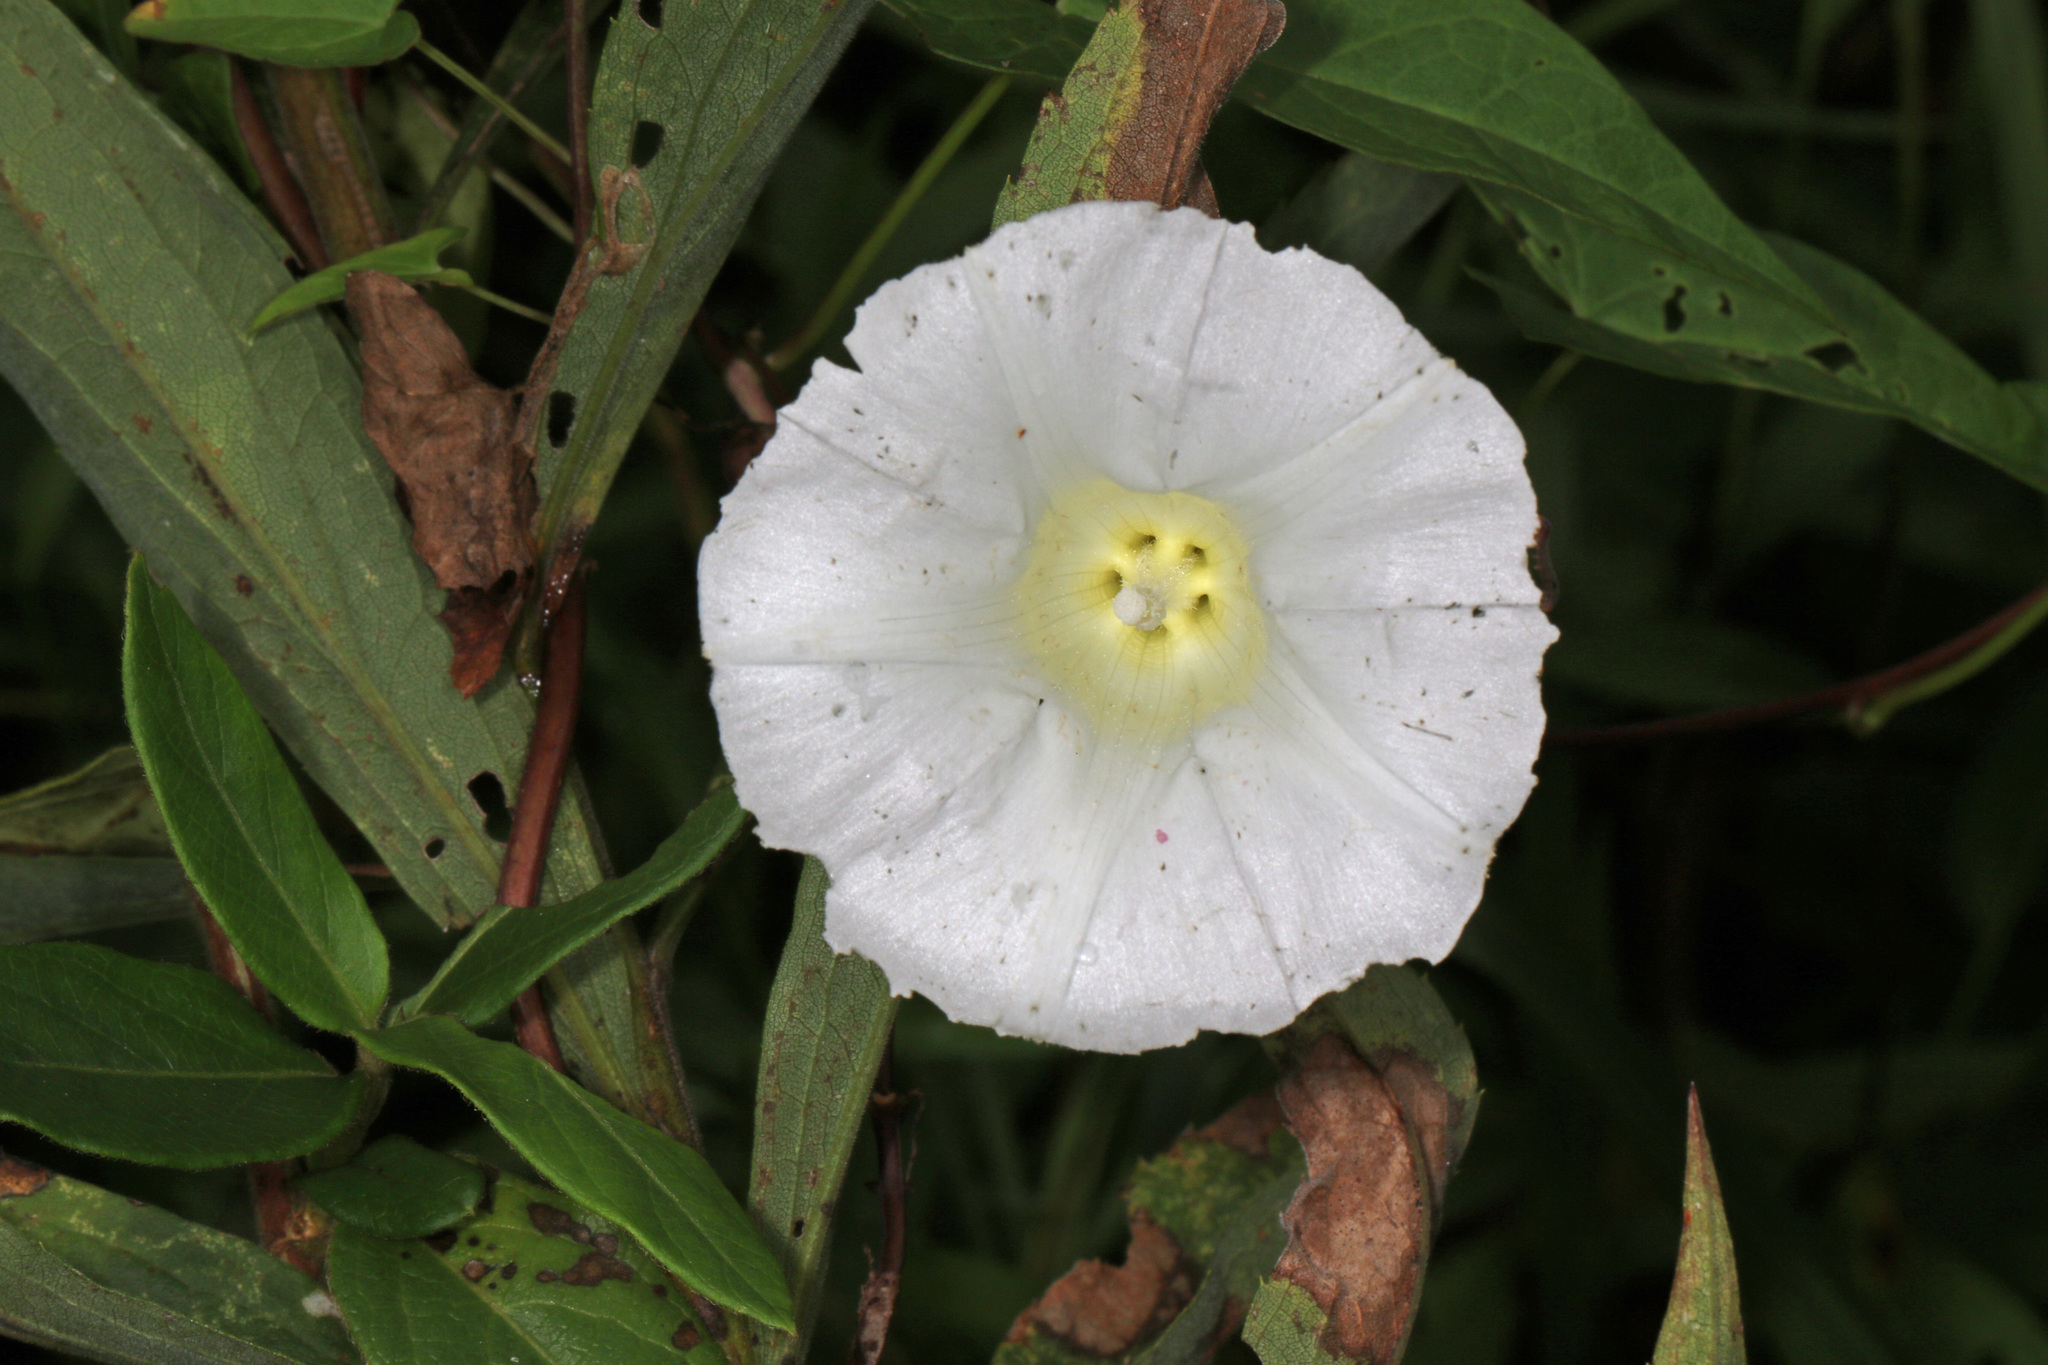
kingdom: Plantae
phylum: Tracheophyta
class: Magnoliopsida
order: Solanales
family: Convolvulaceae
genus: Calystegia
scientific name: Calystegia sepium
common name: Hedge bindweed
